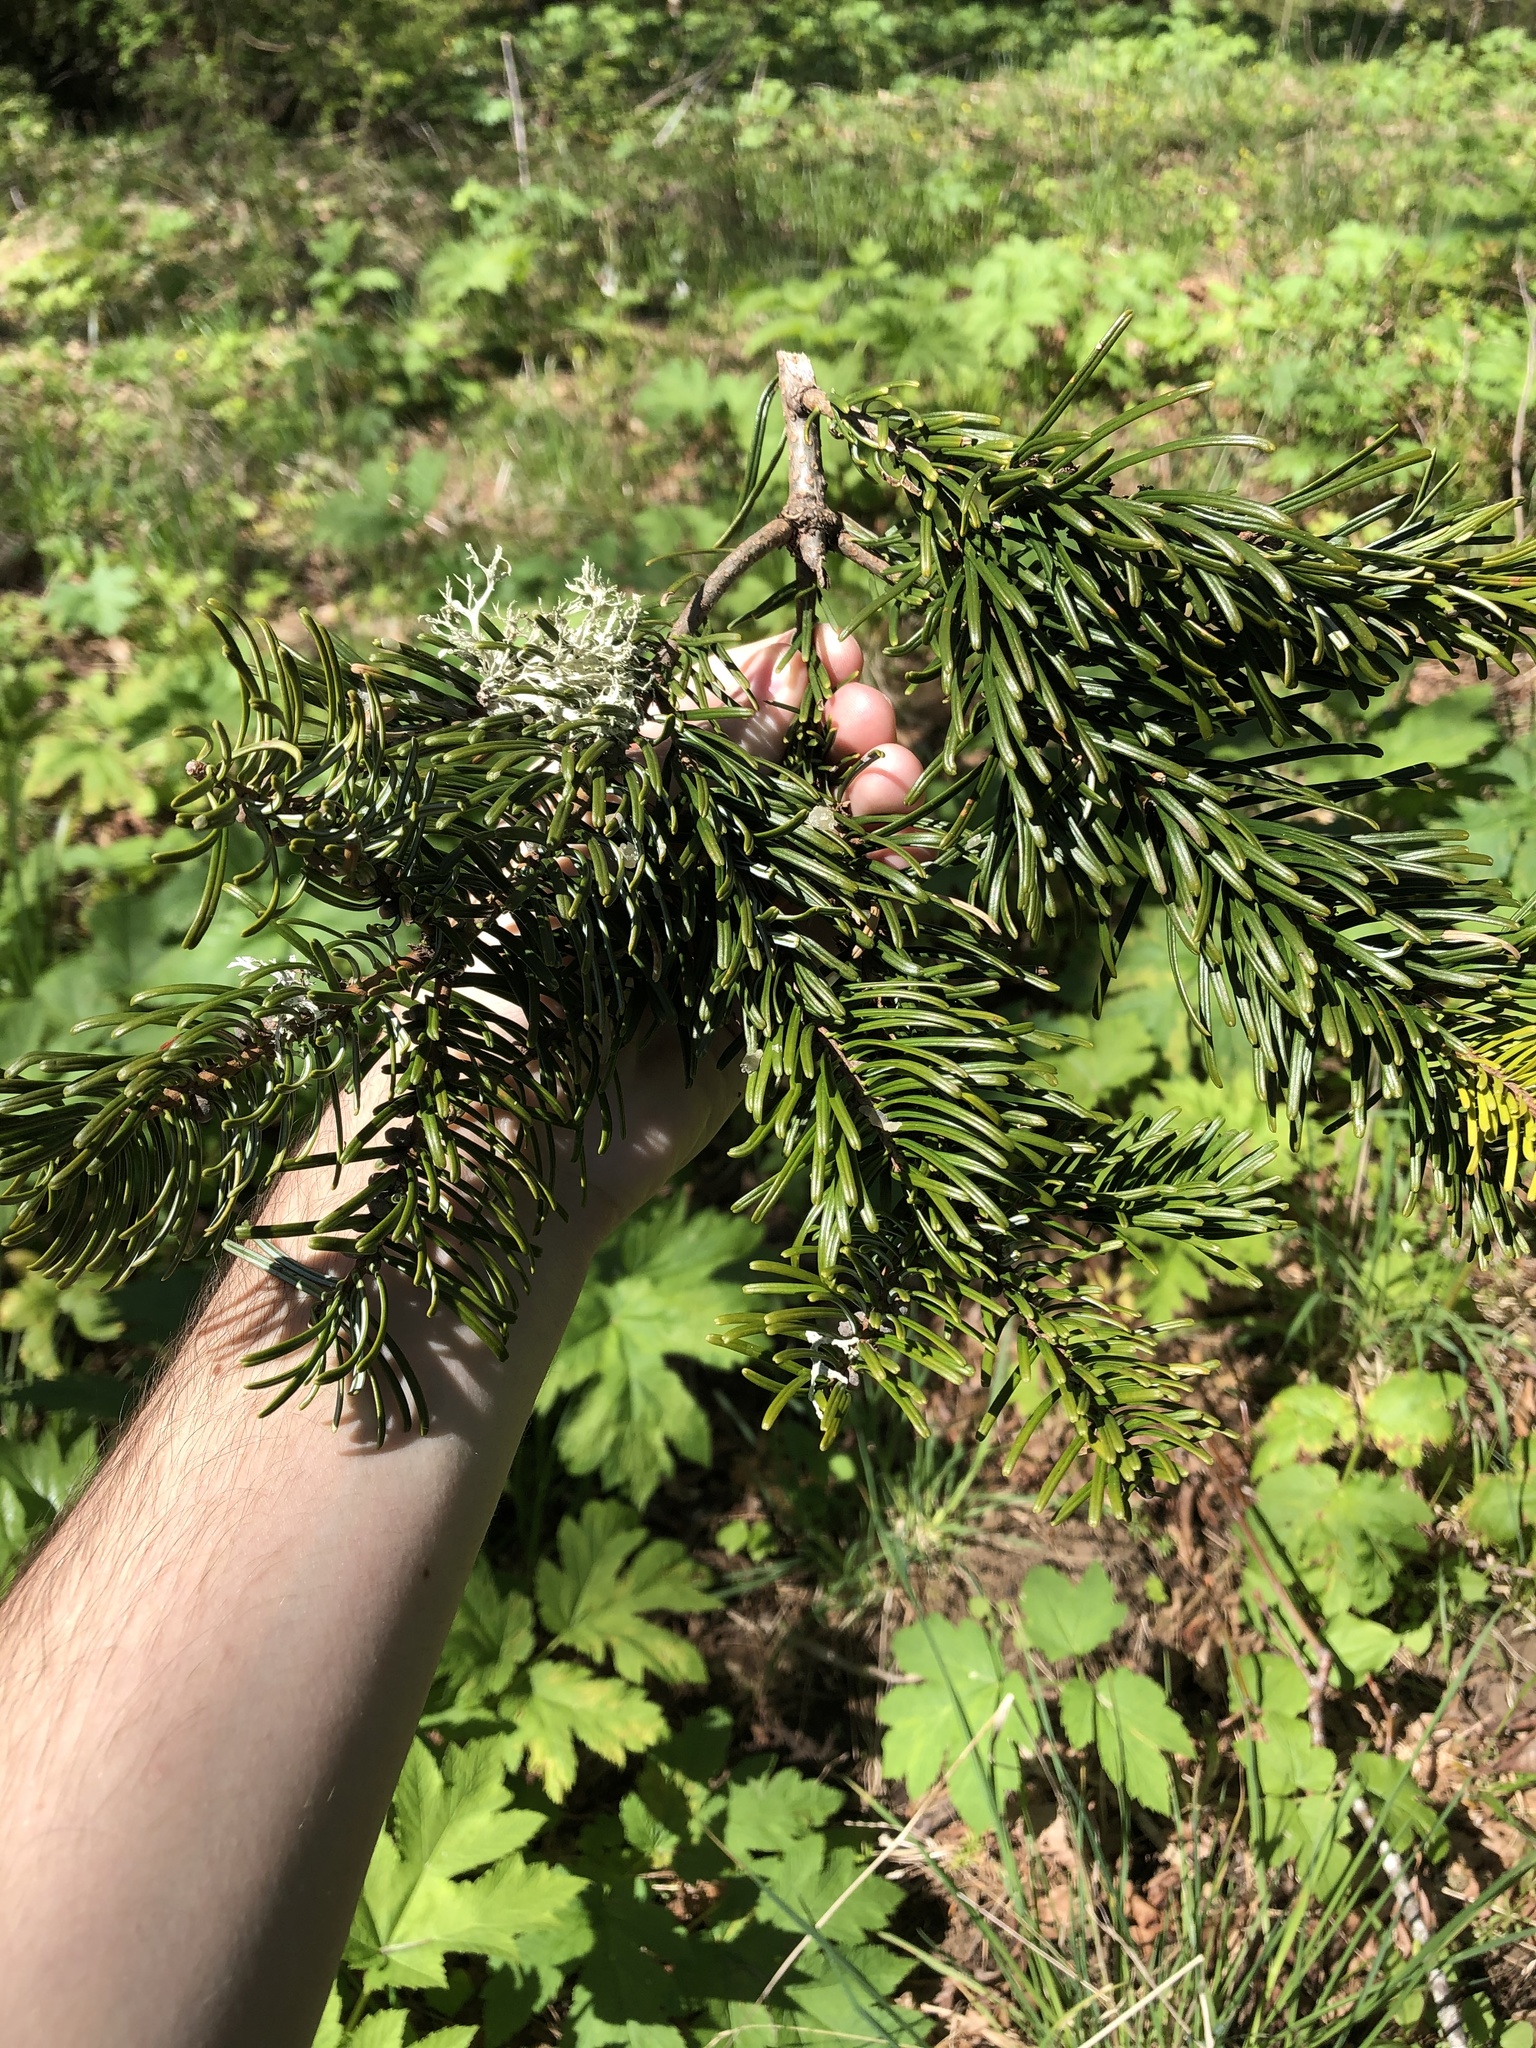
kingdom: Plantae
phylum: Tracheophyta
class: Pinopsida
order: Pinales
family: Pinaceae
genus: Abies
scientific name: Abies grandis
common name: Giant fir
